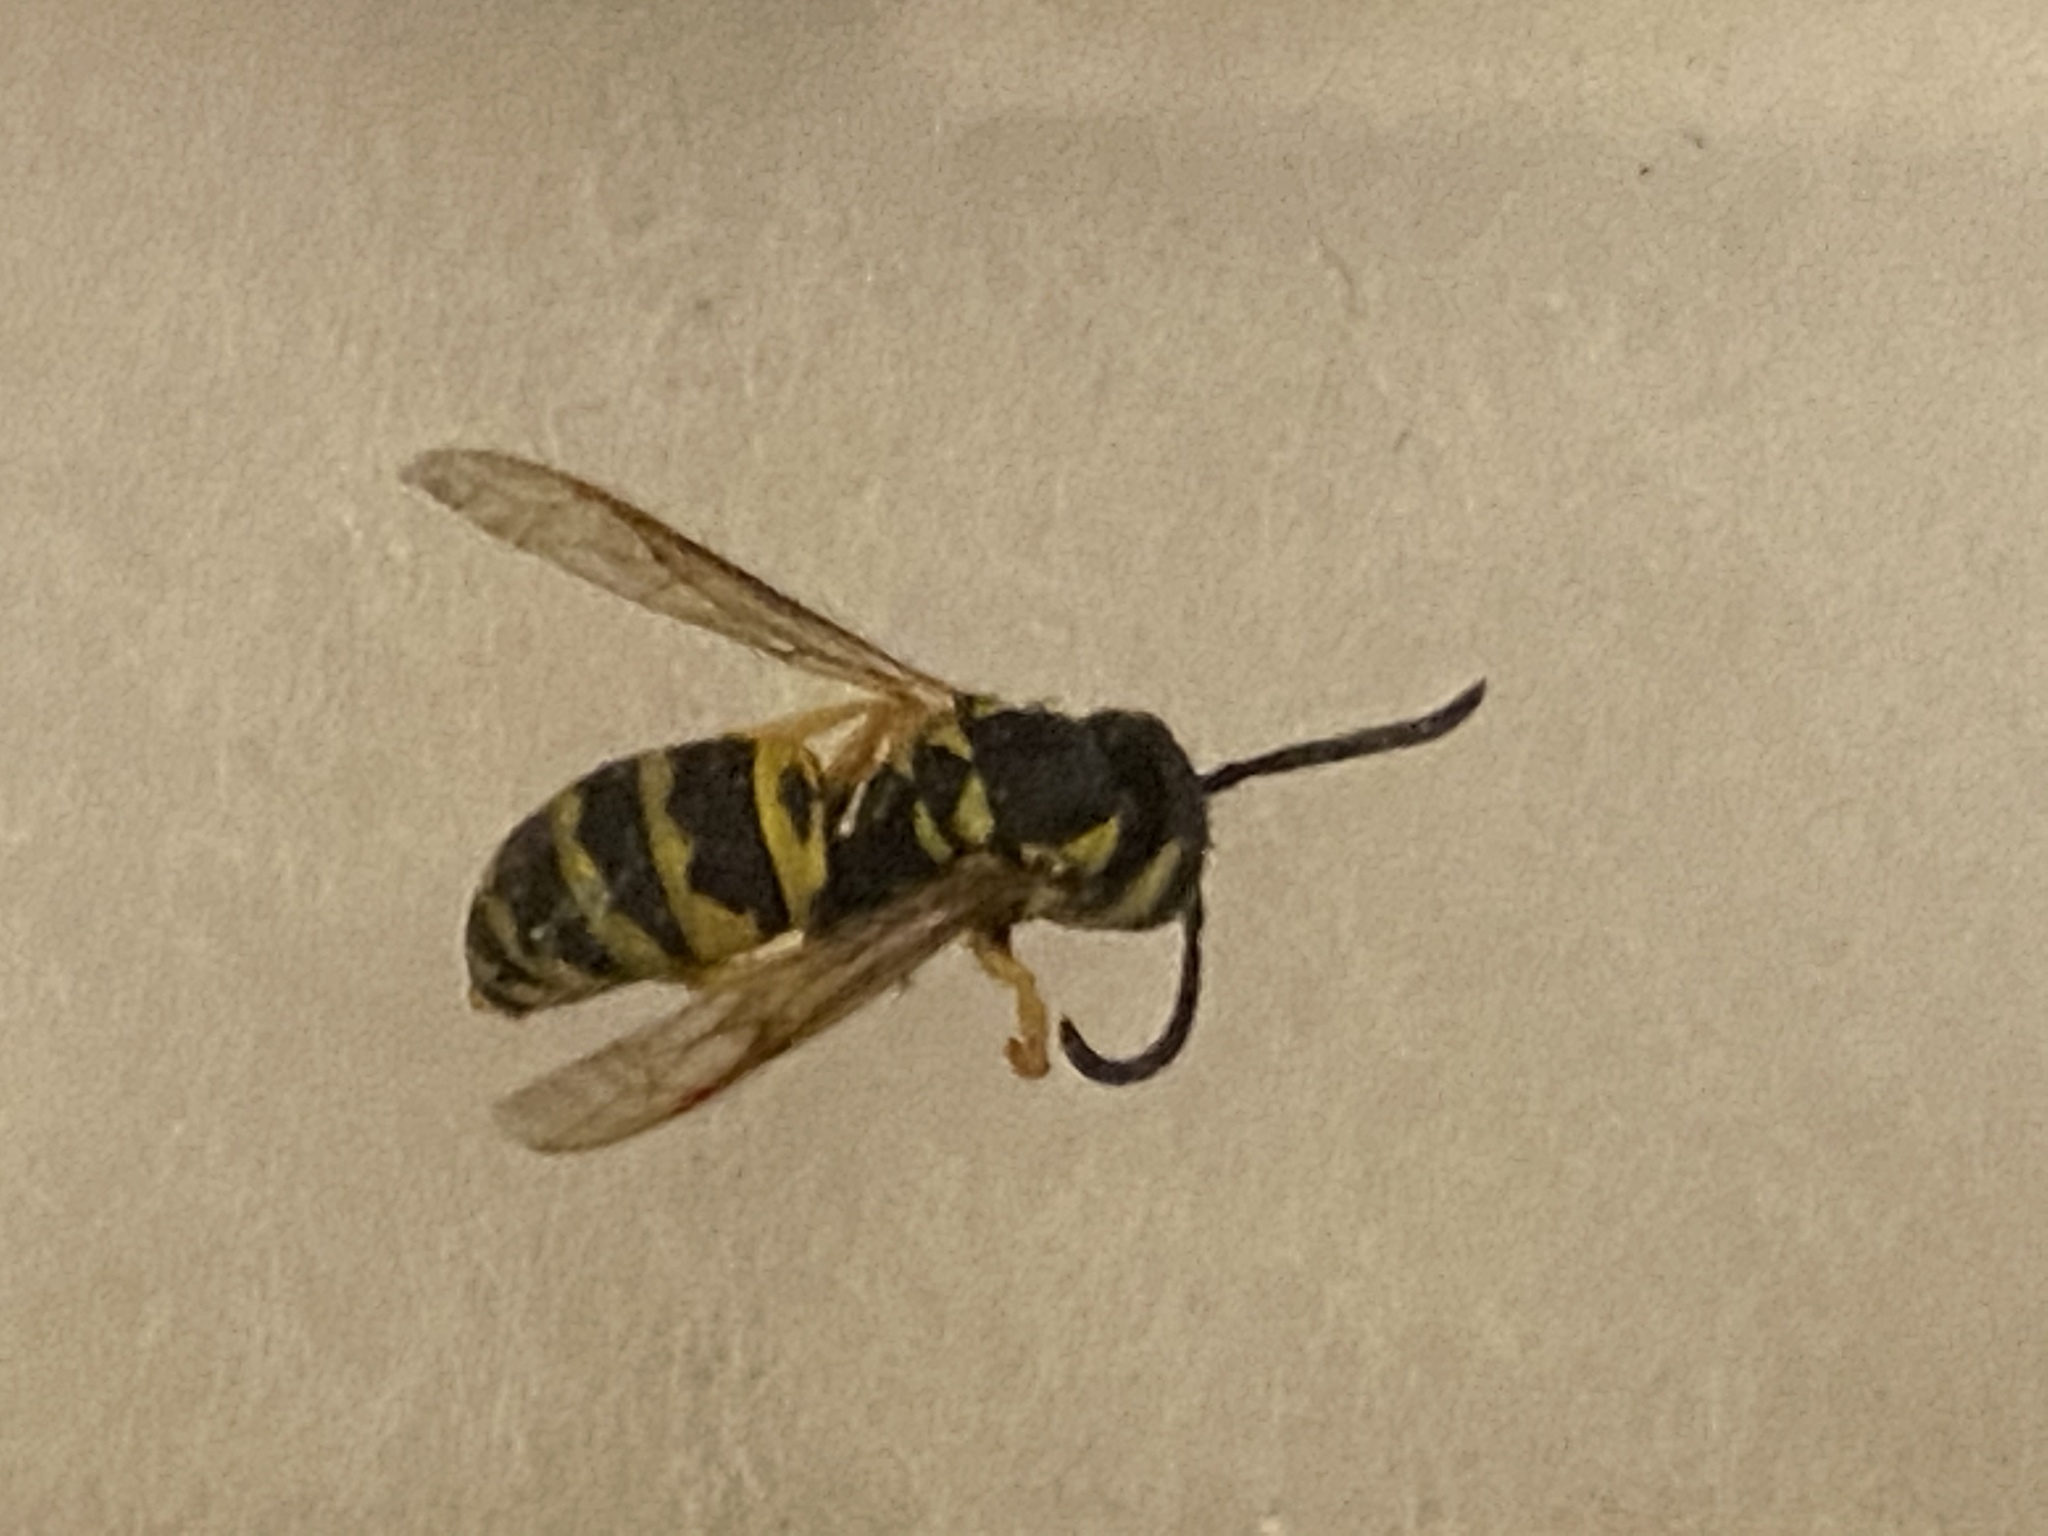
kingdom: Animalia
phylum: Arthropoda
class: Insecta
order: Hymenoptera
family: Vespidae
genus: Vespula
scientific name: Vespula maculifrons
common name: Eastern yellowjacket
